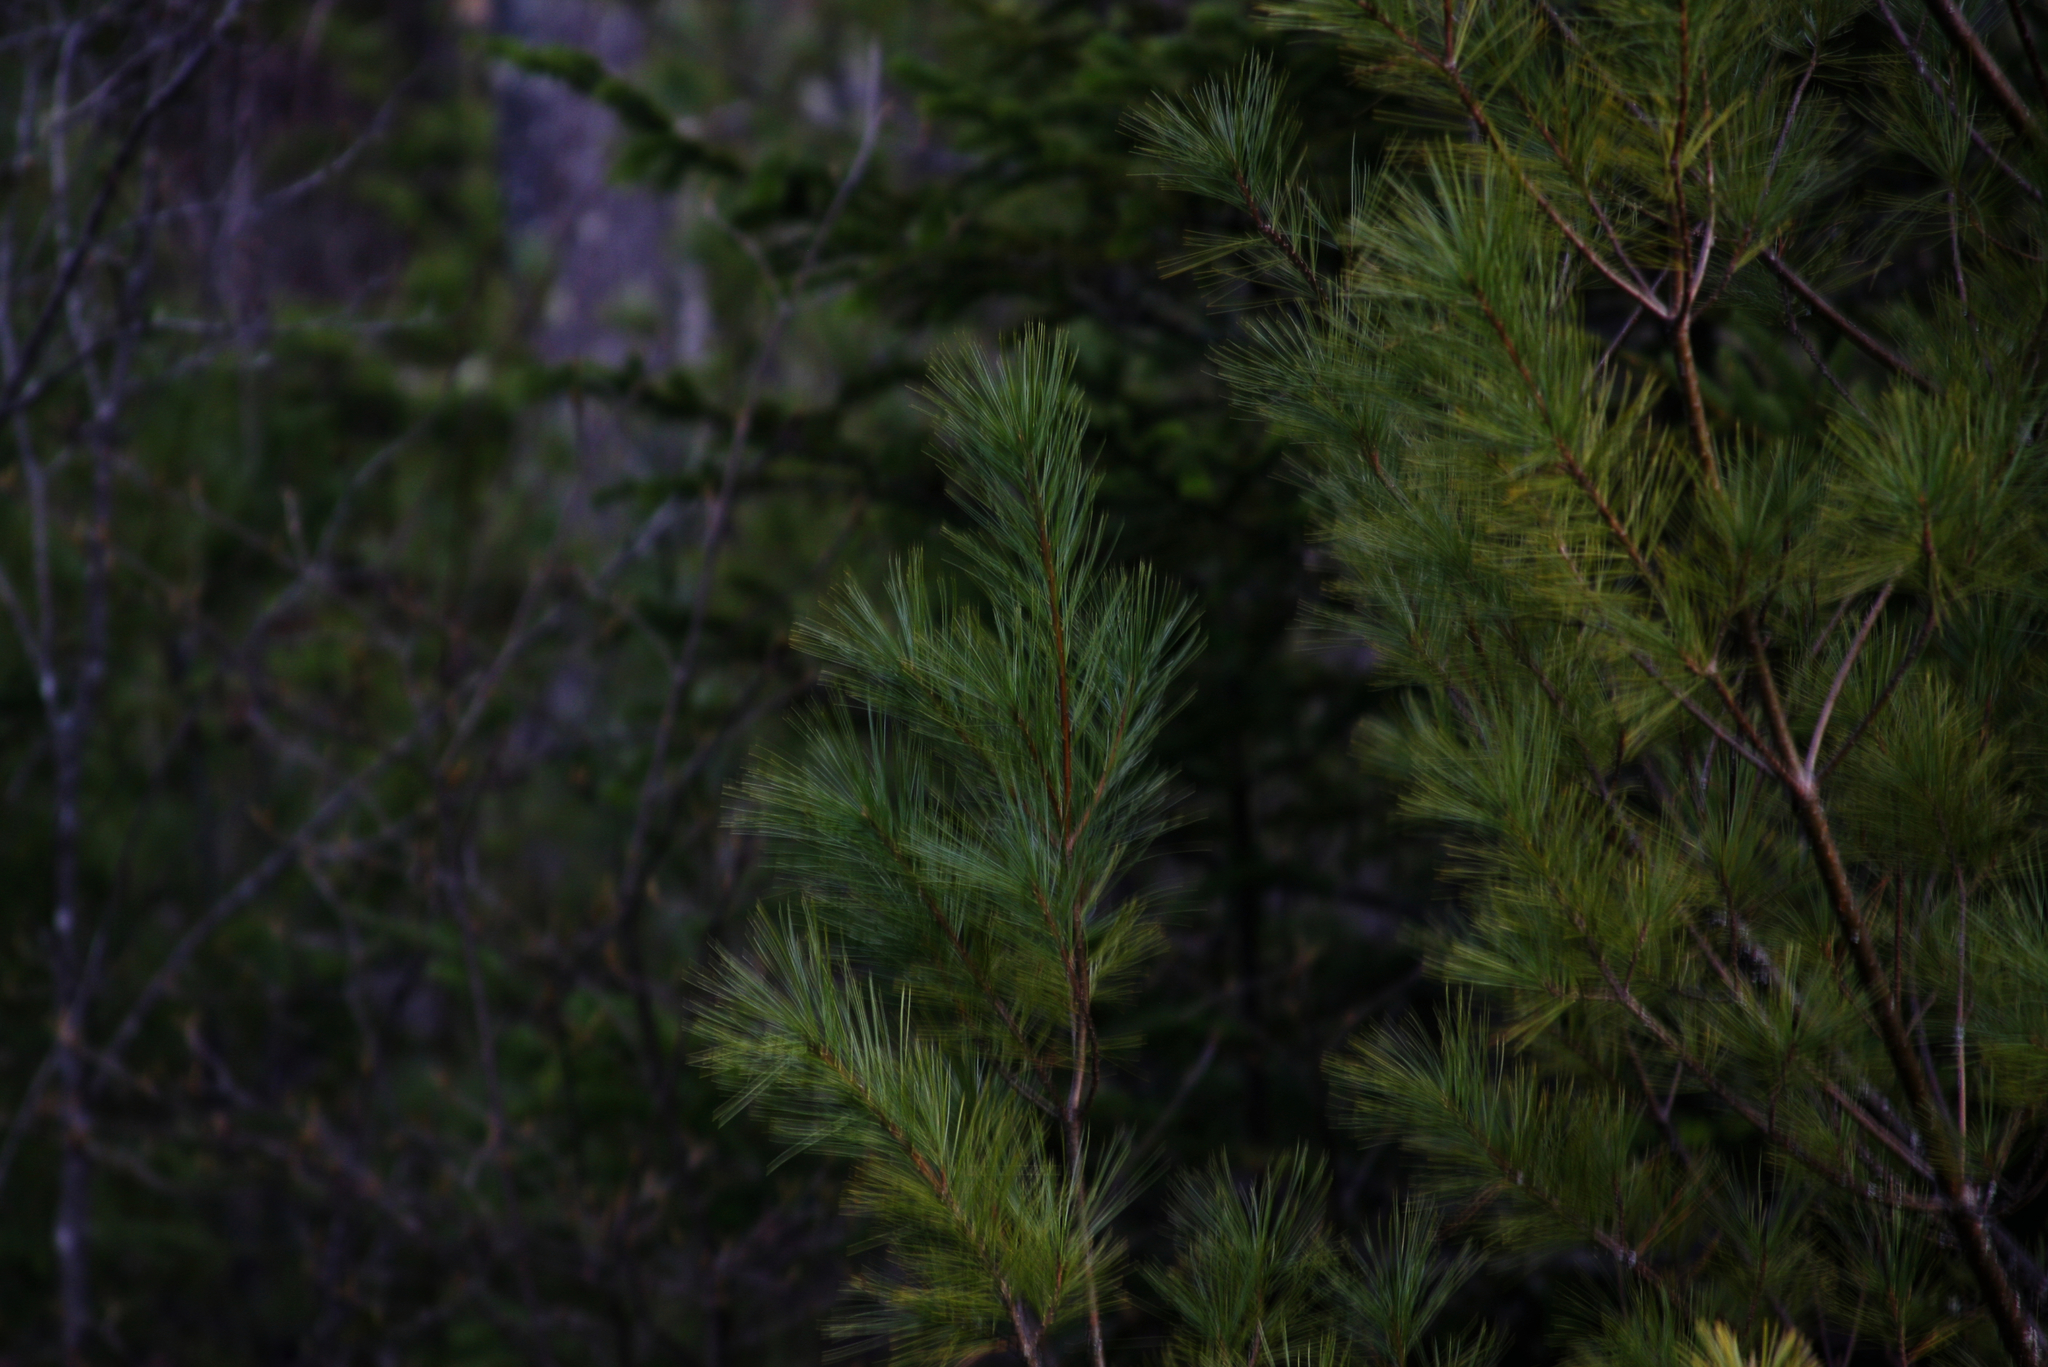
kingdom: Plantae
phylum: Tracheophyta
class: Pinopsida
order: Pinales
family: Pinaceae
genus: Pinus
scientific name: Pinus strobus
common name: Weymouth pine
